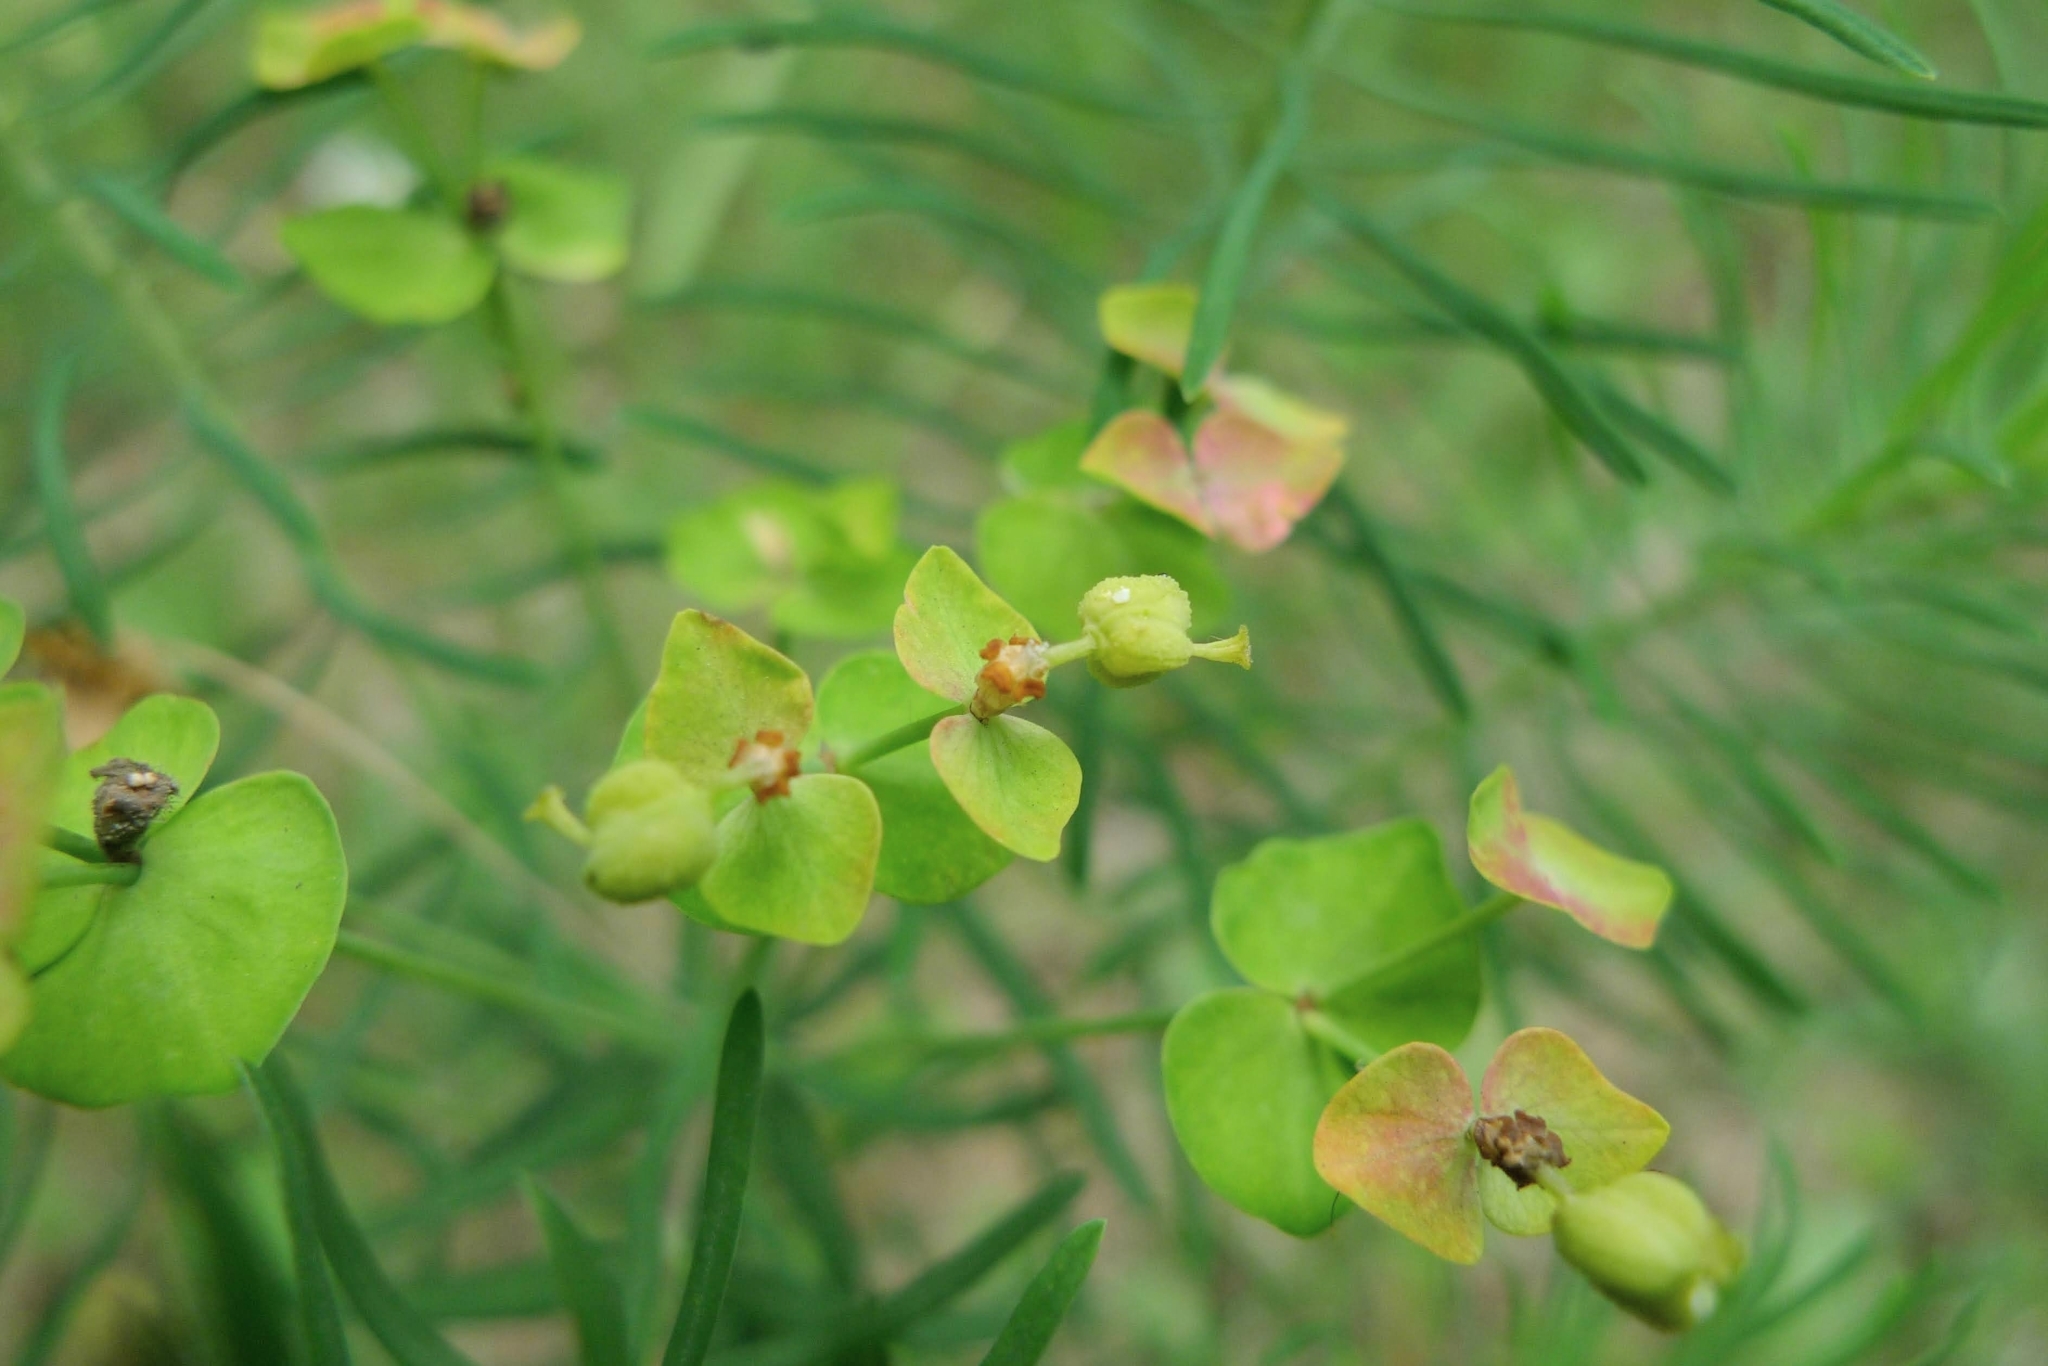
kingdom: Plantae
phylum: Tracheophyta
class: Magnoliopsida
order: Malpighiales
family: Euphorbiaceae
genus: Euphorbia
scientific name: Euphorbia cyparissias
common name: Cypress spurge
